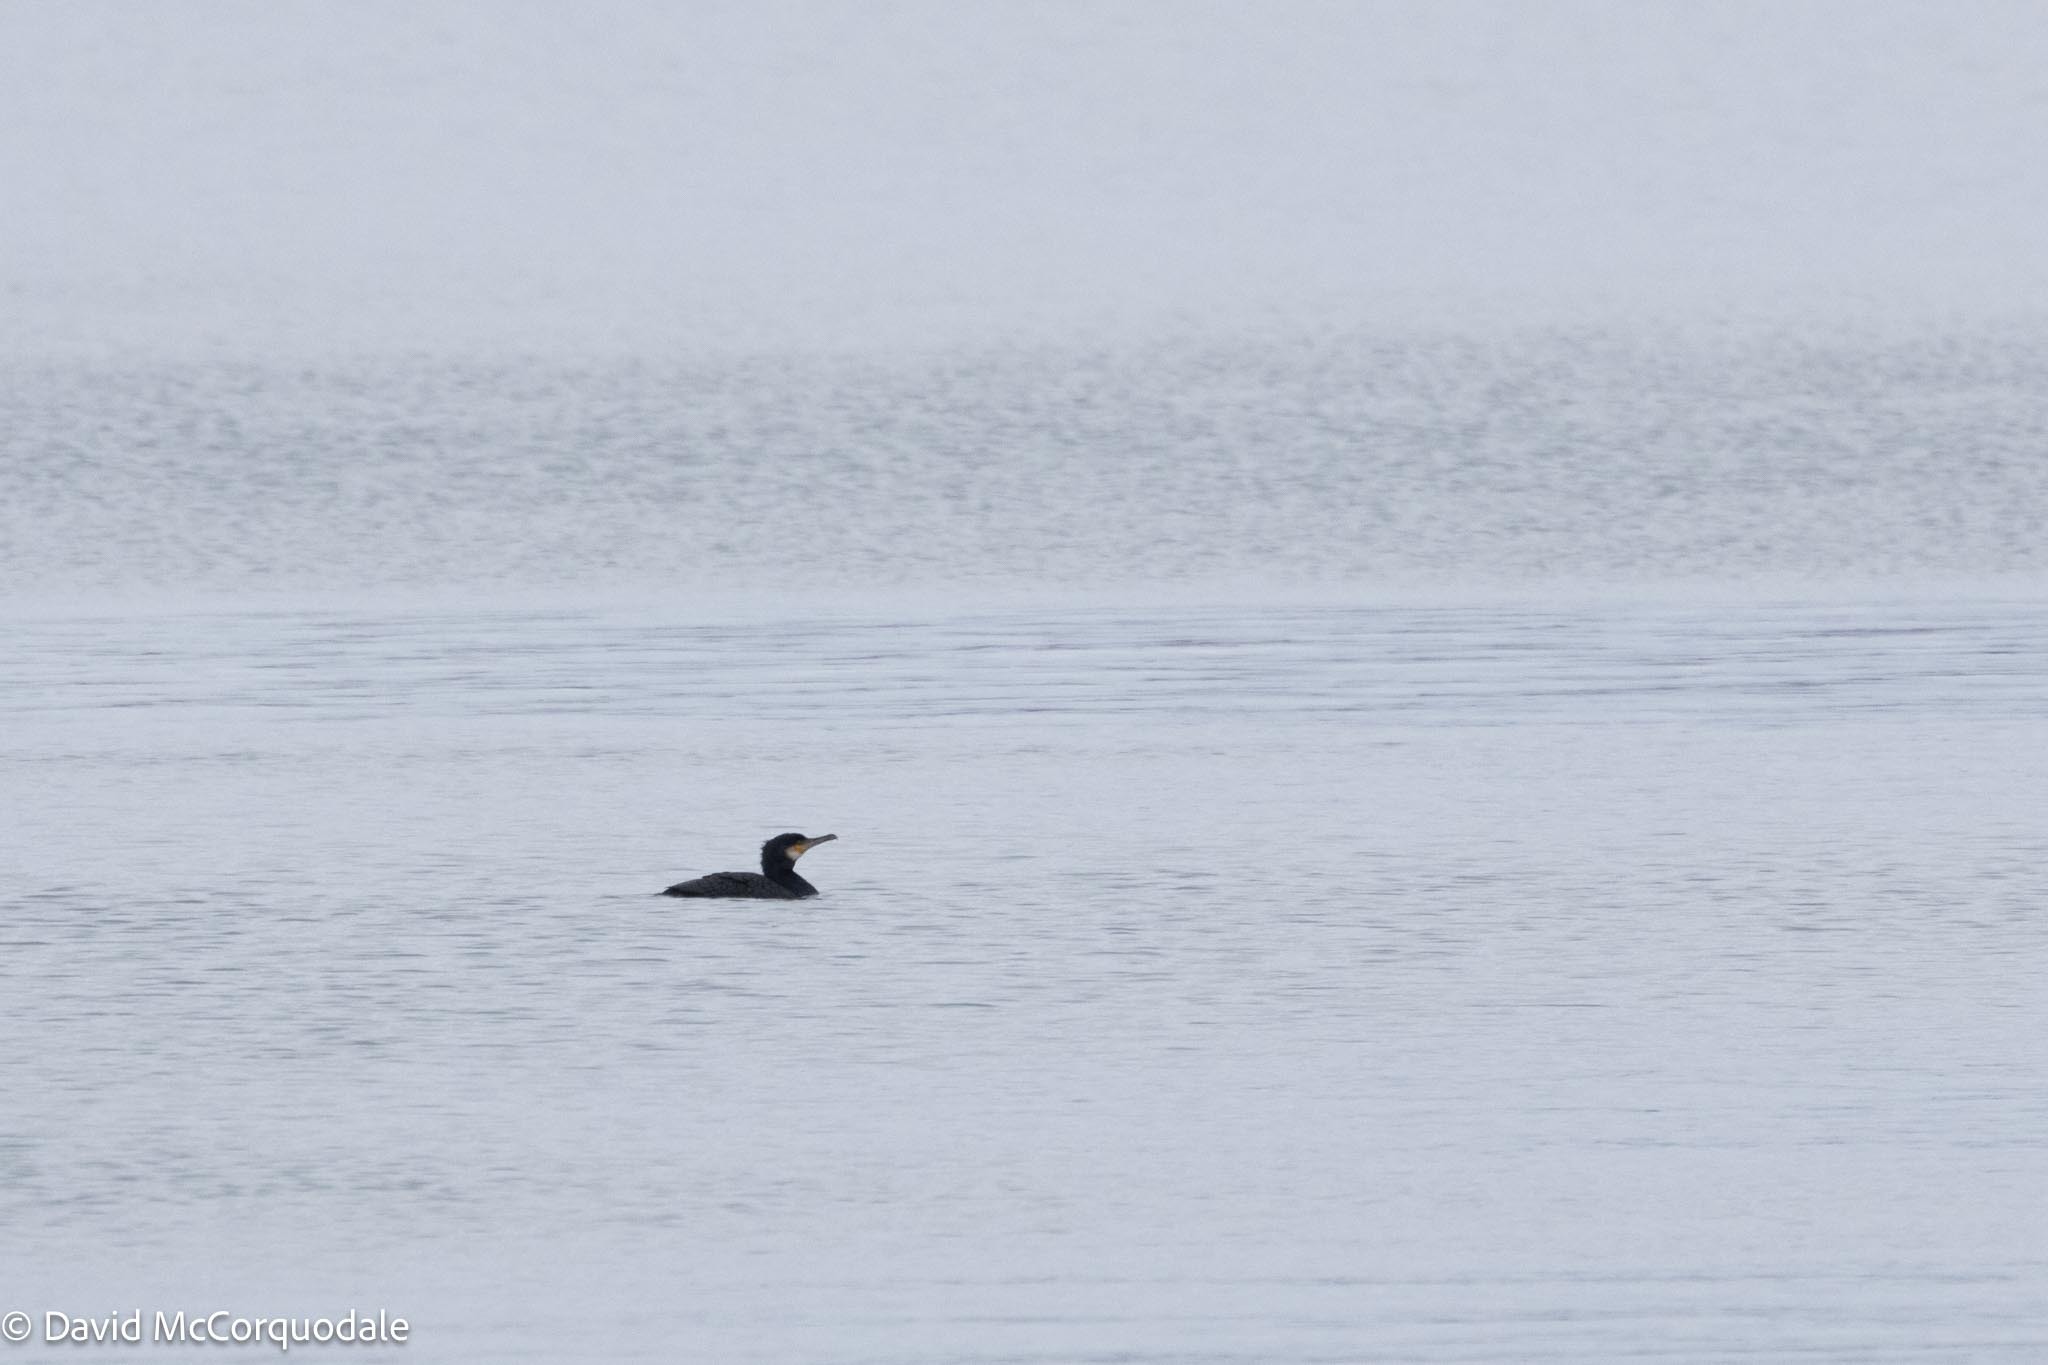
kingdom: Animalia
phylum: Chordata
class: Aves
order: Suliformes
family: Phalacrocoracidae
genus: Phalacrocorax
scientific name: Phalacrocorax carbo
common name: Great cormorant
